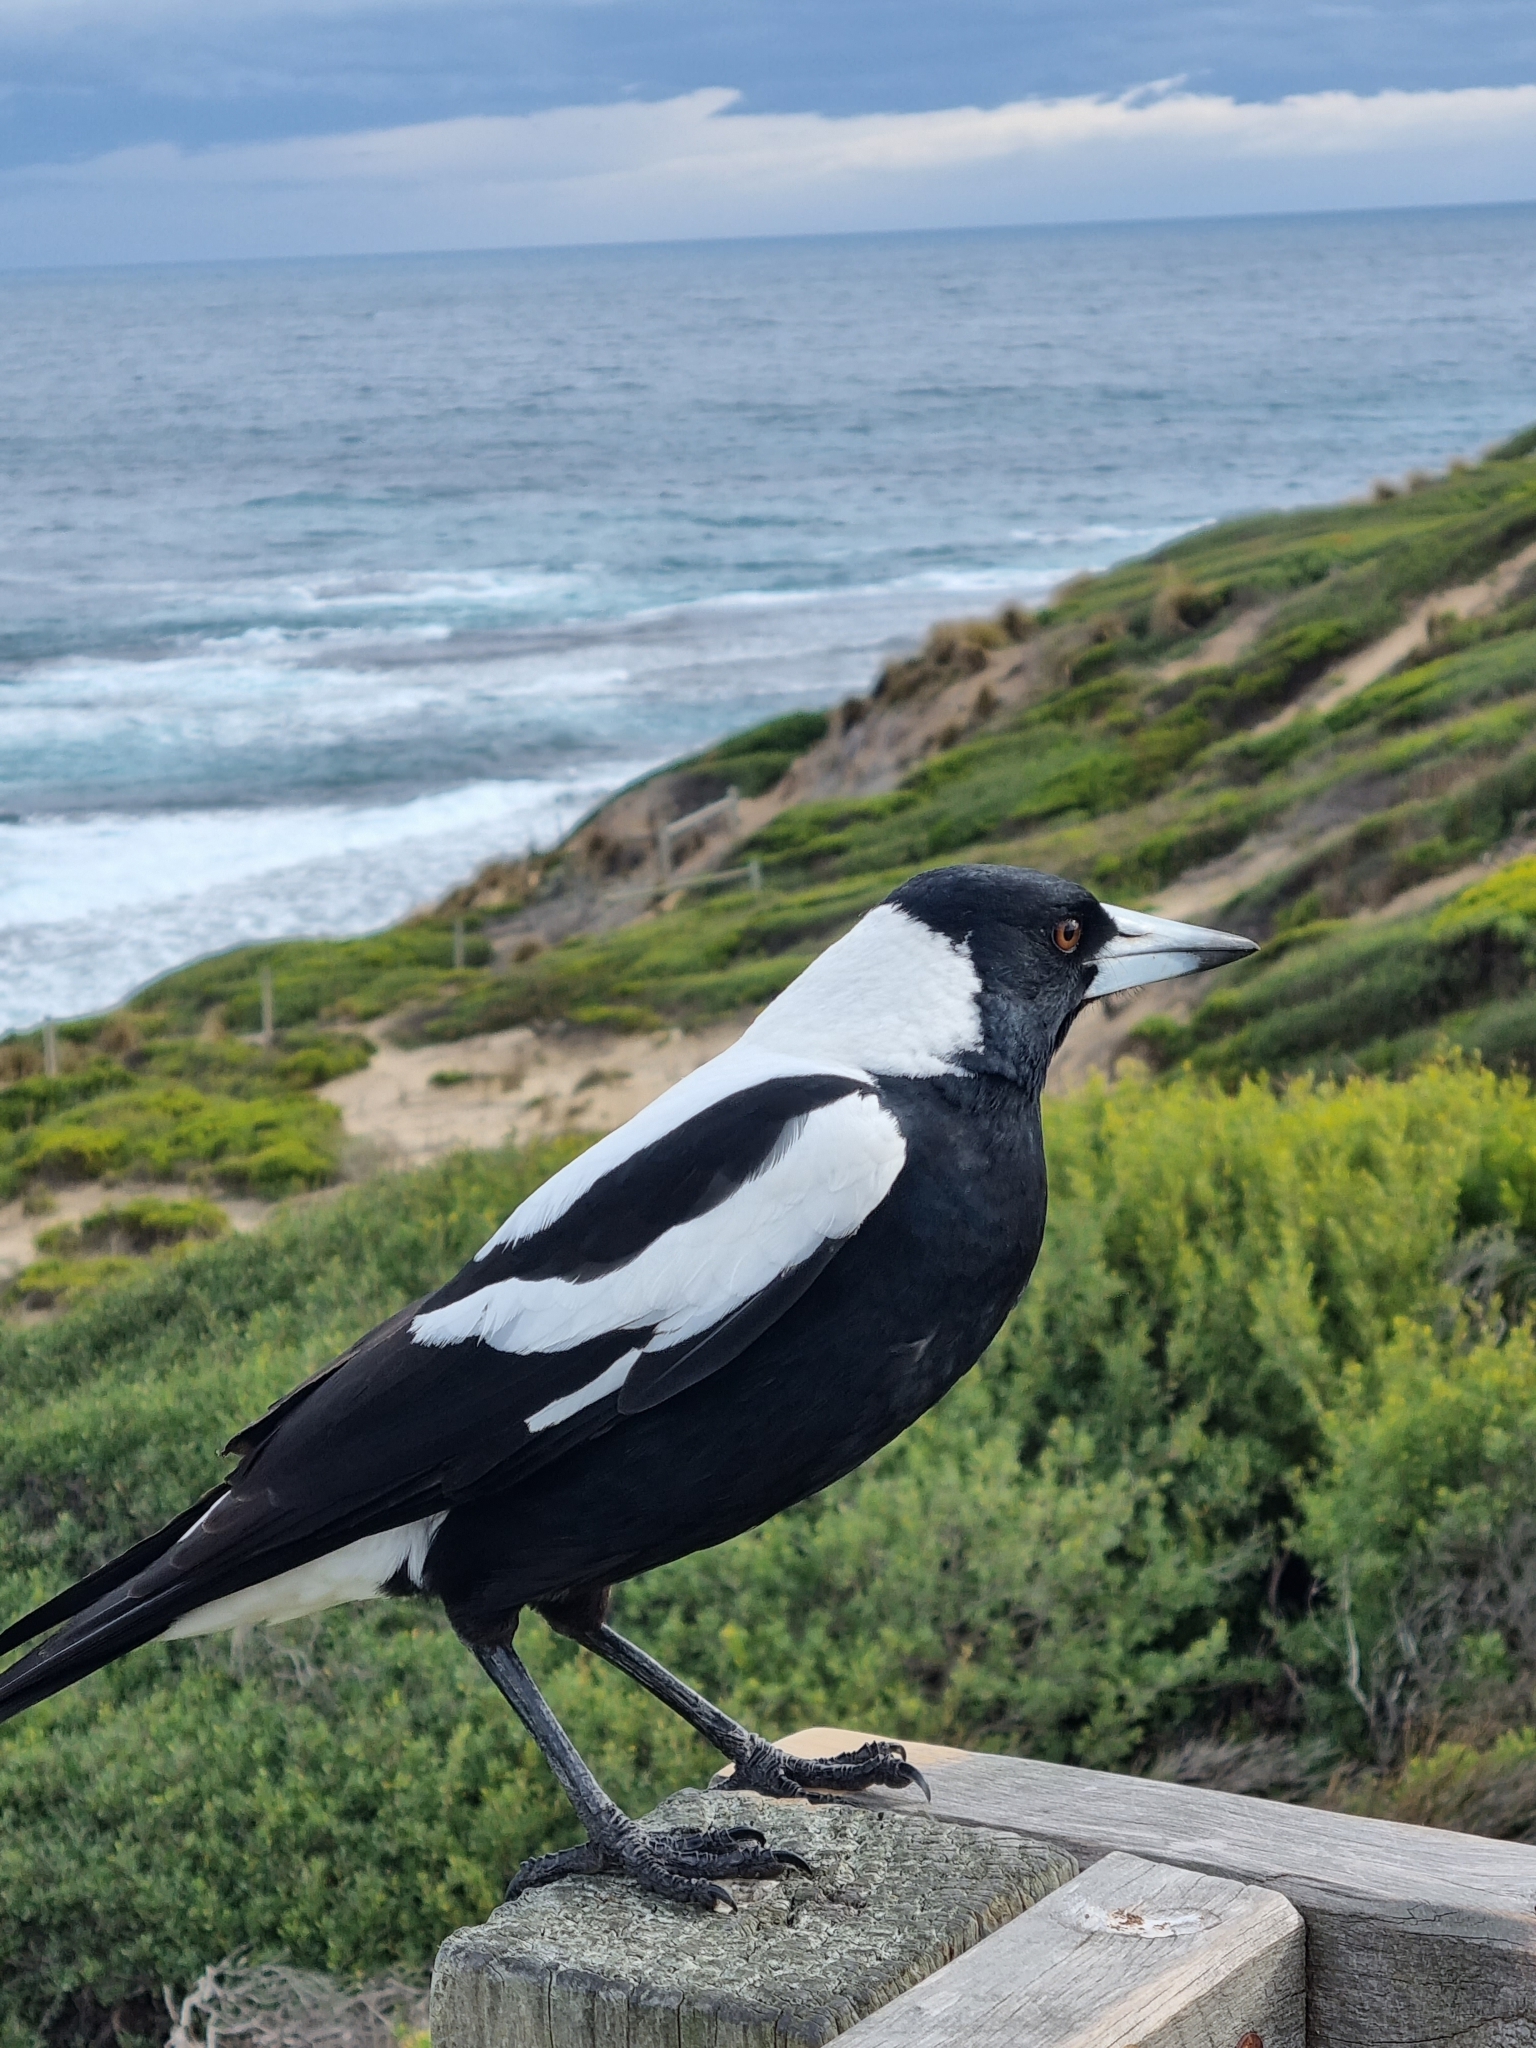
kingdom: Animalia
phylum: Chordata
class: Aves
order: Passeriformes
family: Cracticidae
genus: Gymnorhina
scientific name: Gymnorhina tibicen
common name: Australian magpie
